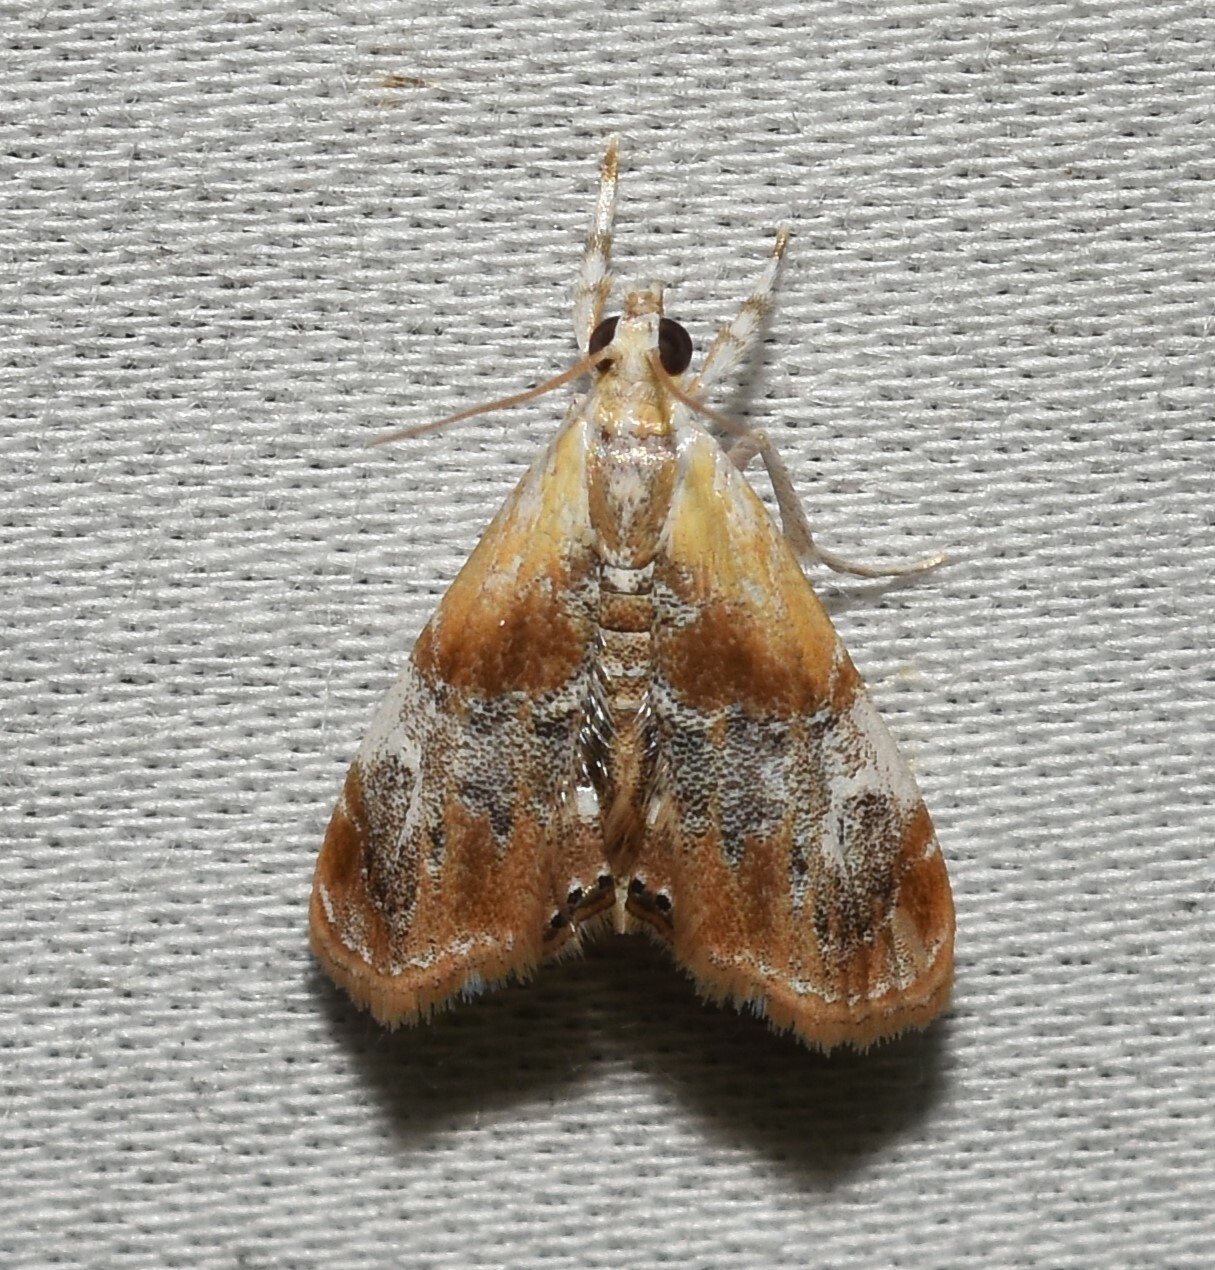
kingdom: Animalia
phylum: Arthropoda
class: Insecta
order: Lepidoptera
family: Crambidae
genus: Dicymolomia
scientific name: Dicymolomia julianalis
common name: Julia's dicymolomia moth
